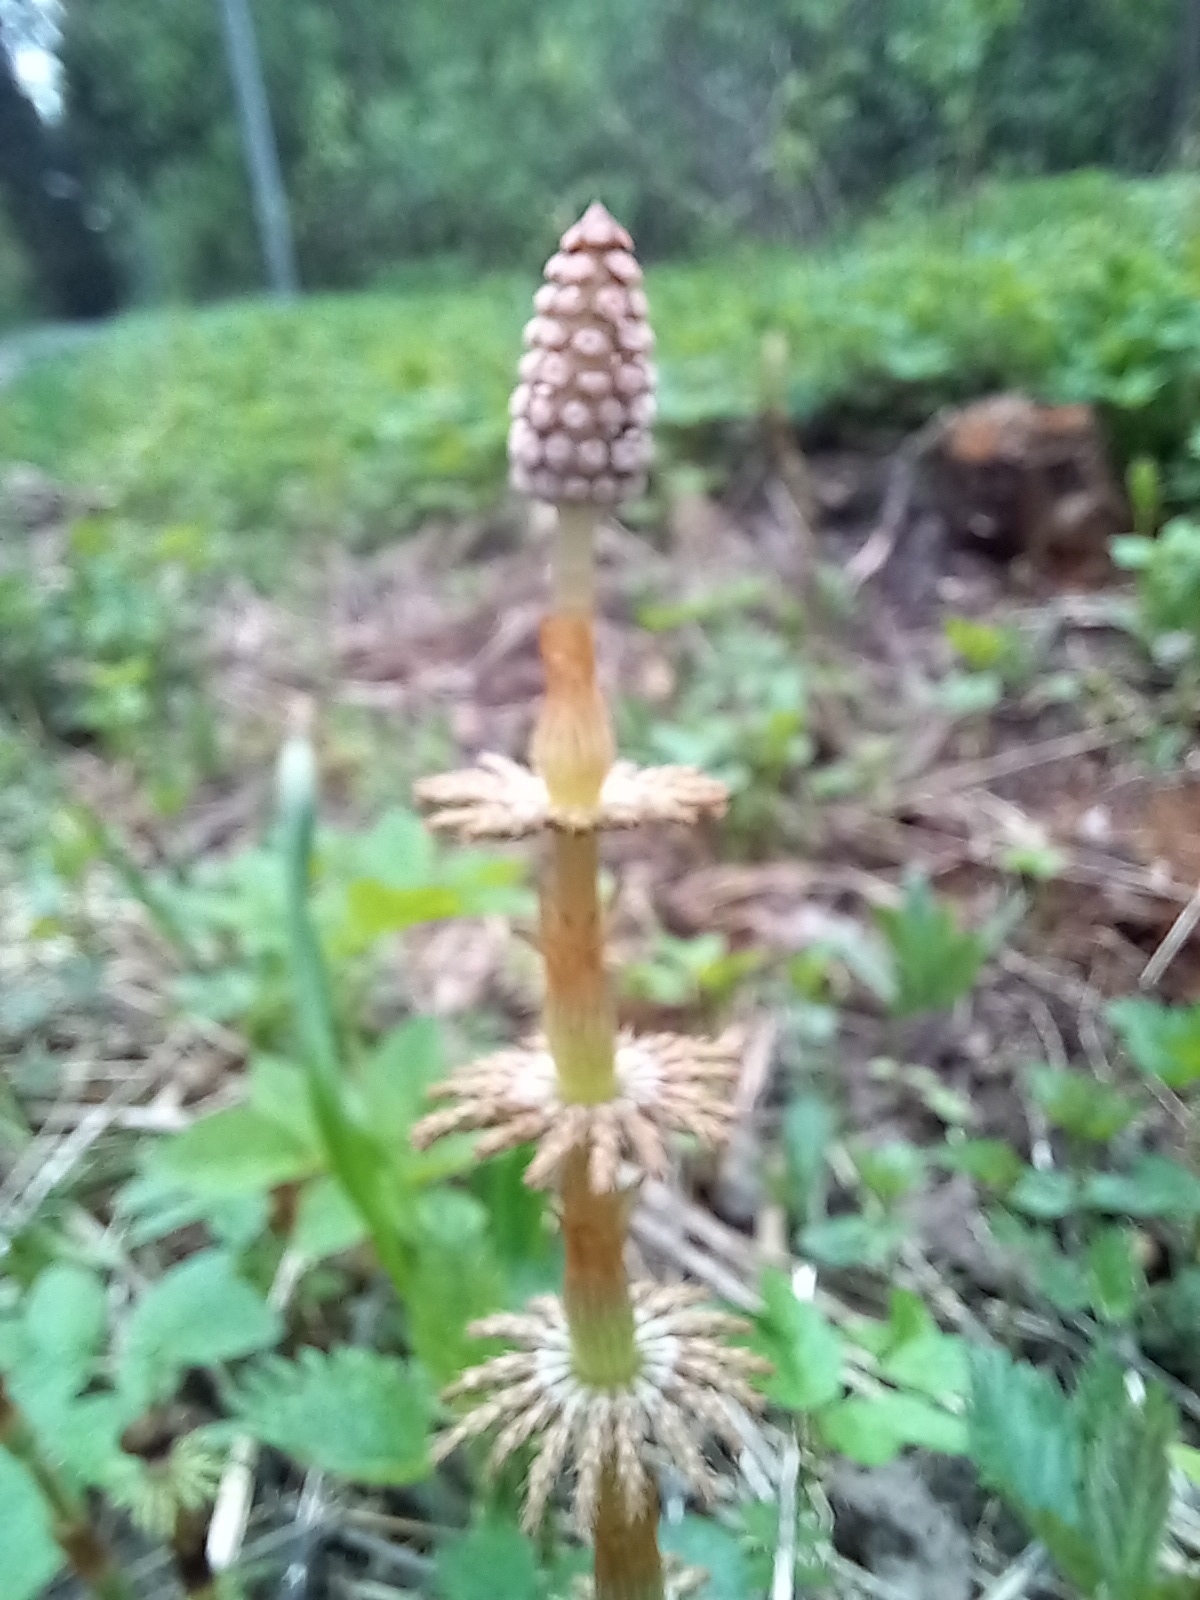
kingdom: Plantae
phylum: Tracheophyta
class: Polypodiopsida
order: Equisetales
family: Equisetaceae
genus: Equisetum
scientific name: Equisetum sylvaticum
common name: Wood horsetail
